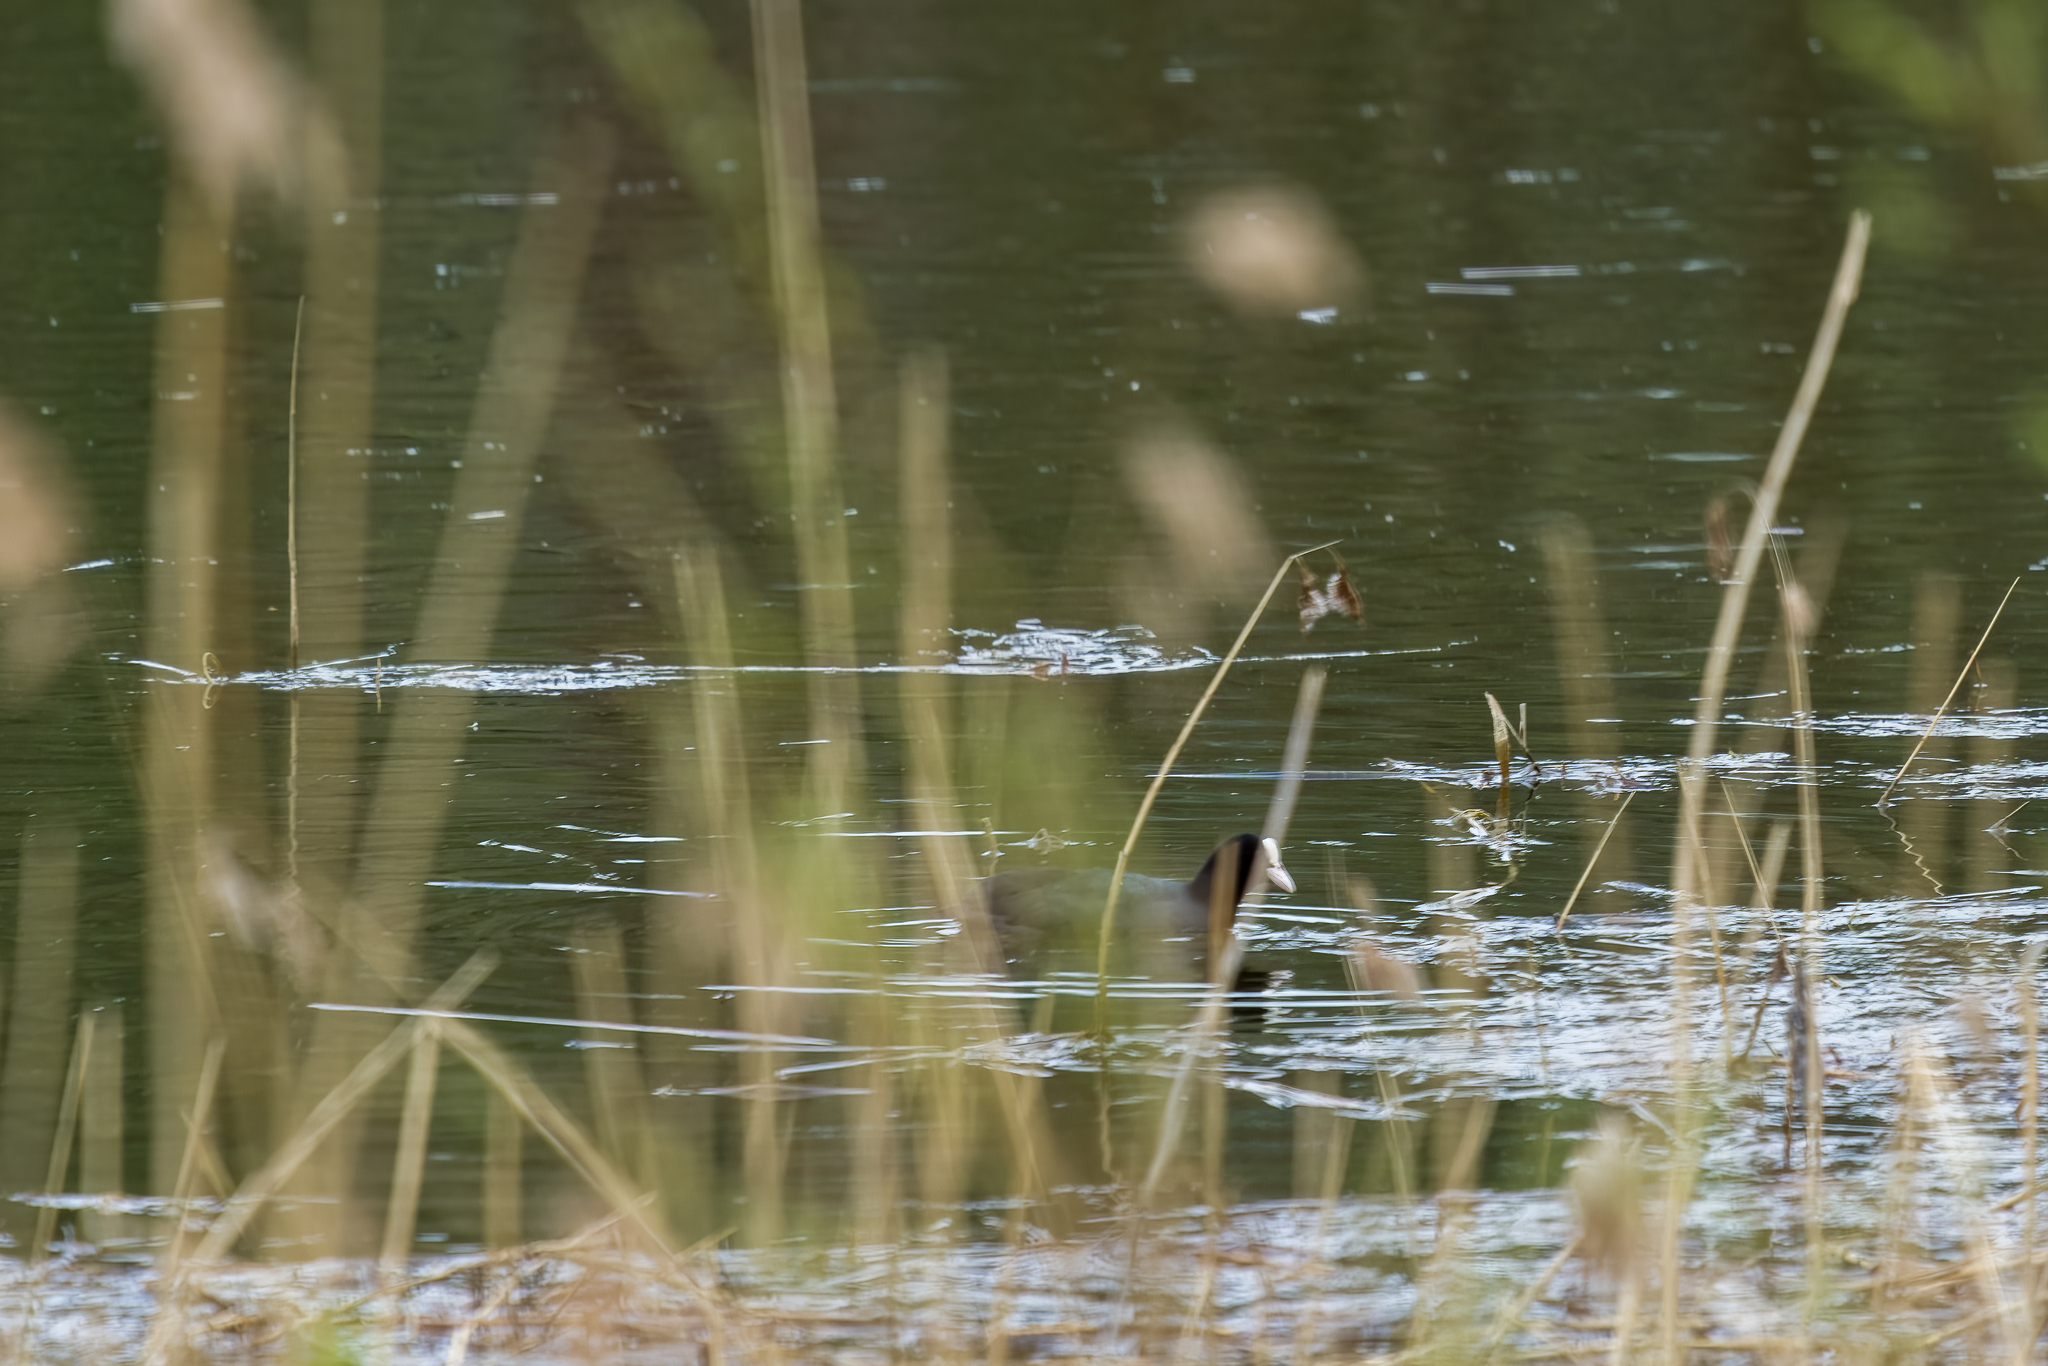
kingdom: Animalia
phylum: Chordata
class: Aves
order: Gruiformes
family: Rallidae
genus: Fulica
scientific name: Fulica atra
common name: Eurasian coot
